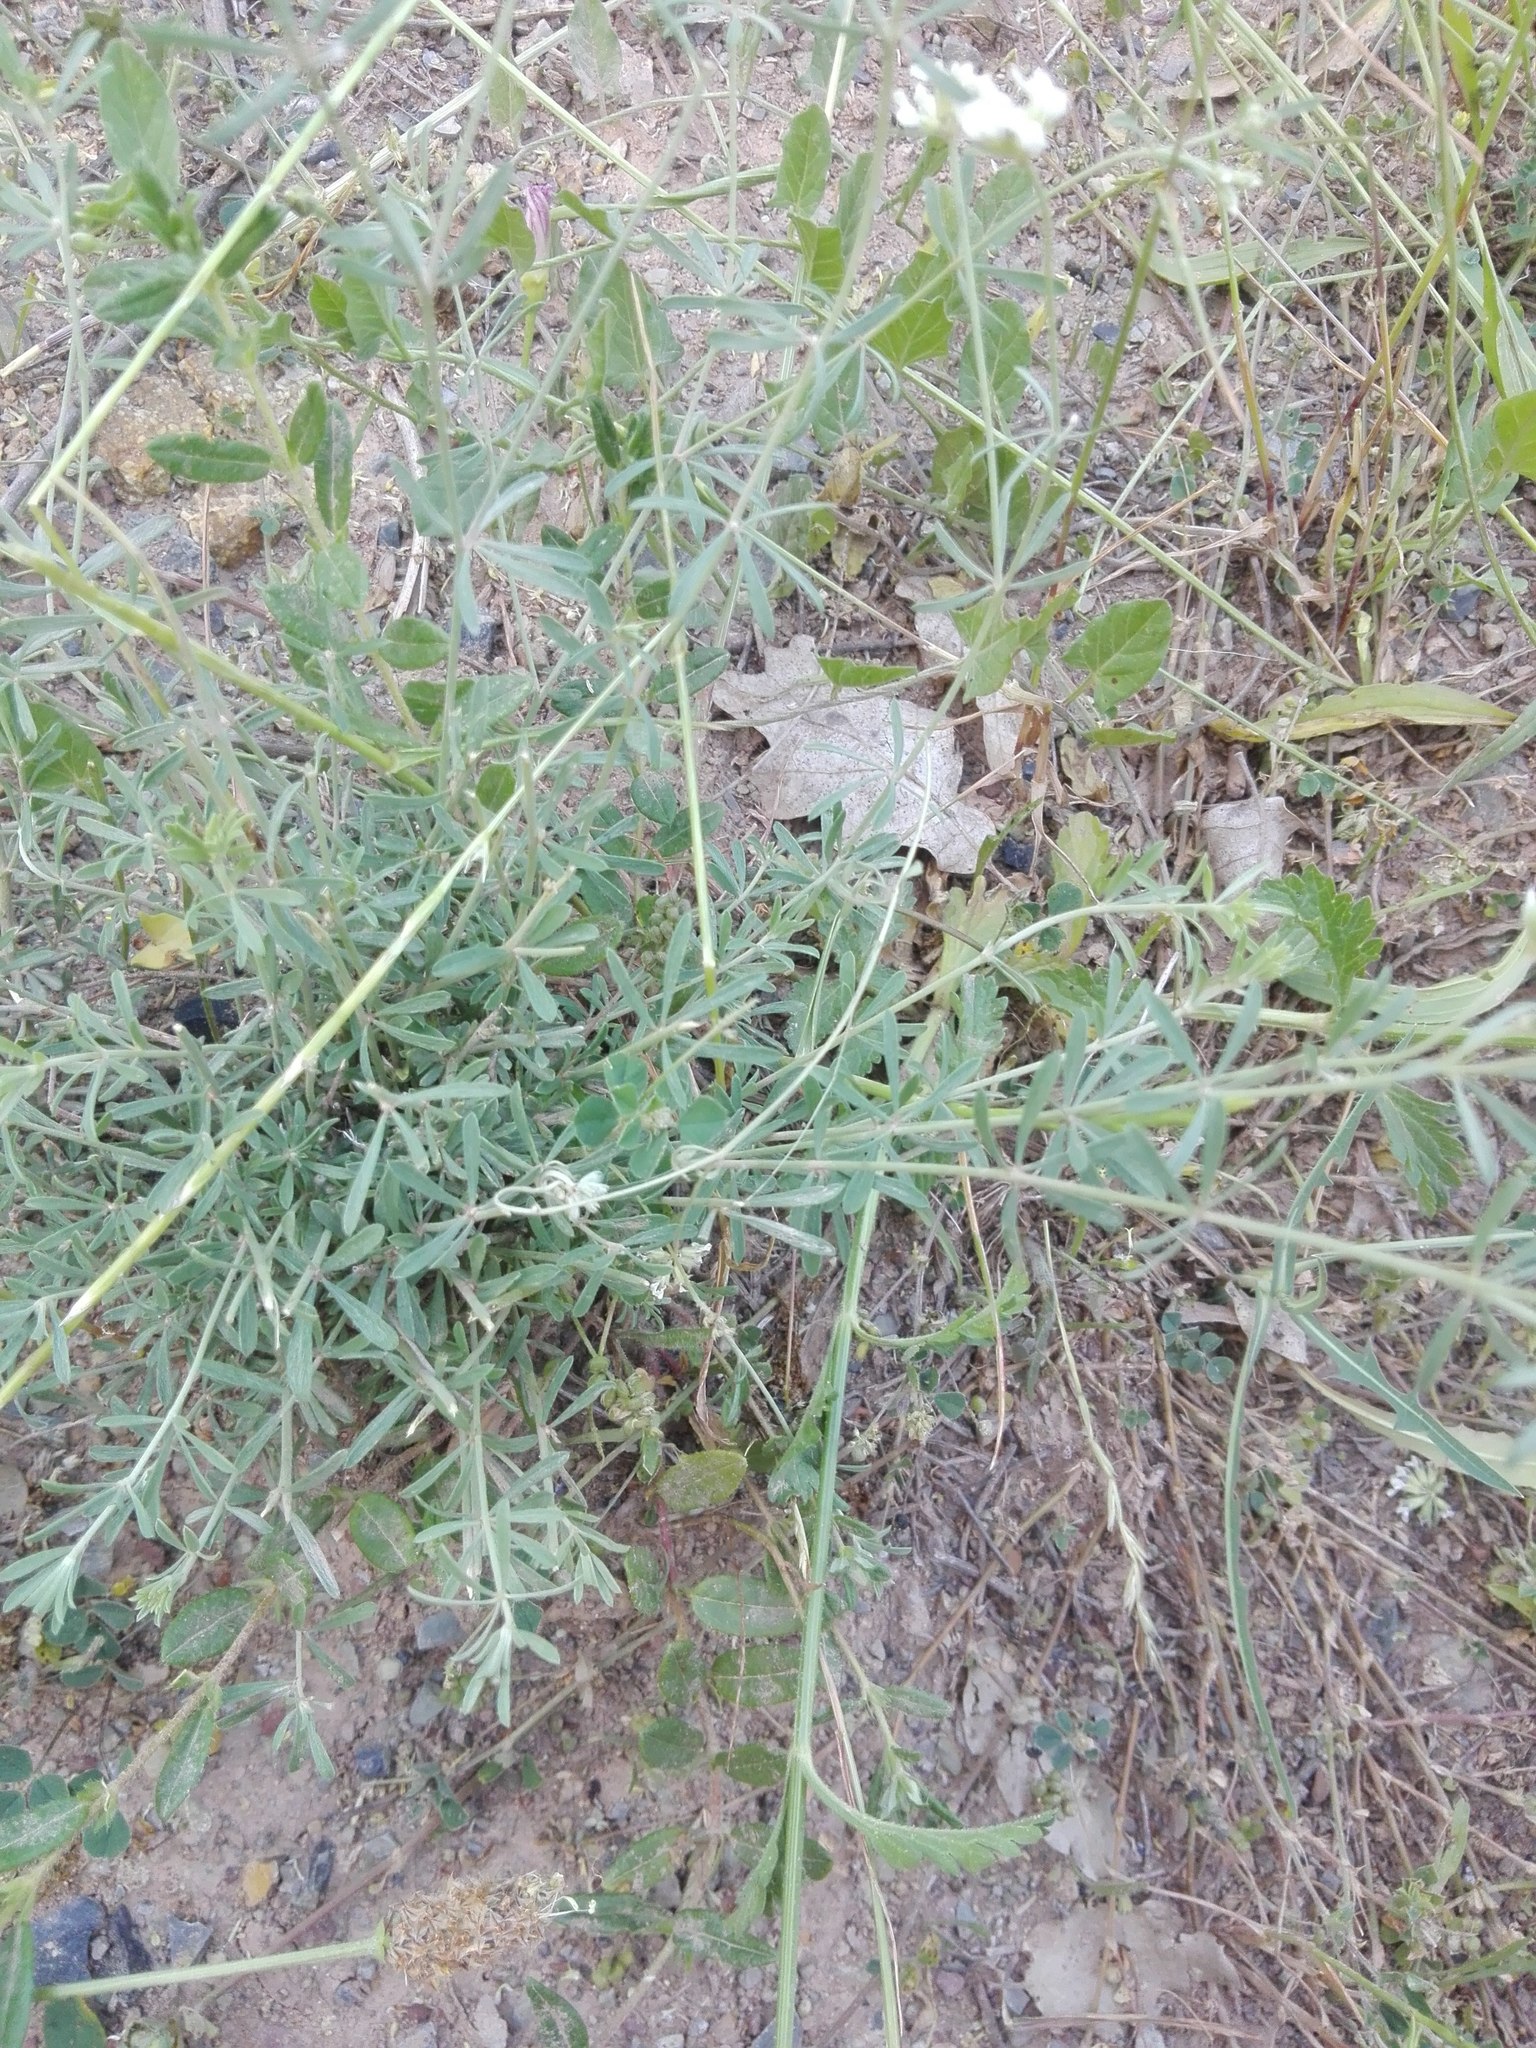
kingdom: Plantae
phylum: Tracheophyta
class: Magnoliopsida
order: Fabales
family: Fabaceae
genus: Lotus
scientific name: Lotus dorycnium
